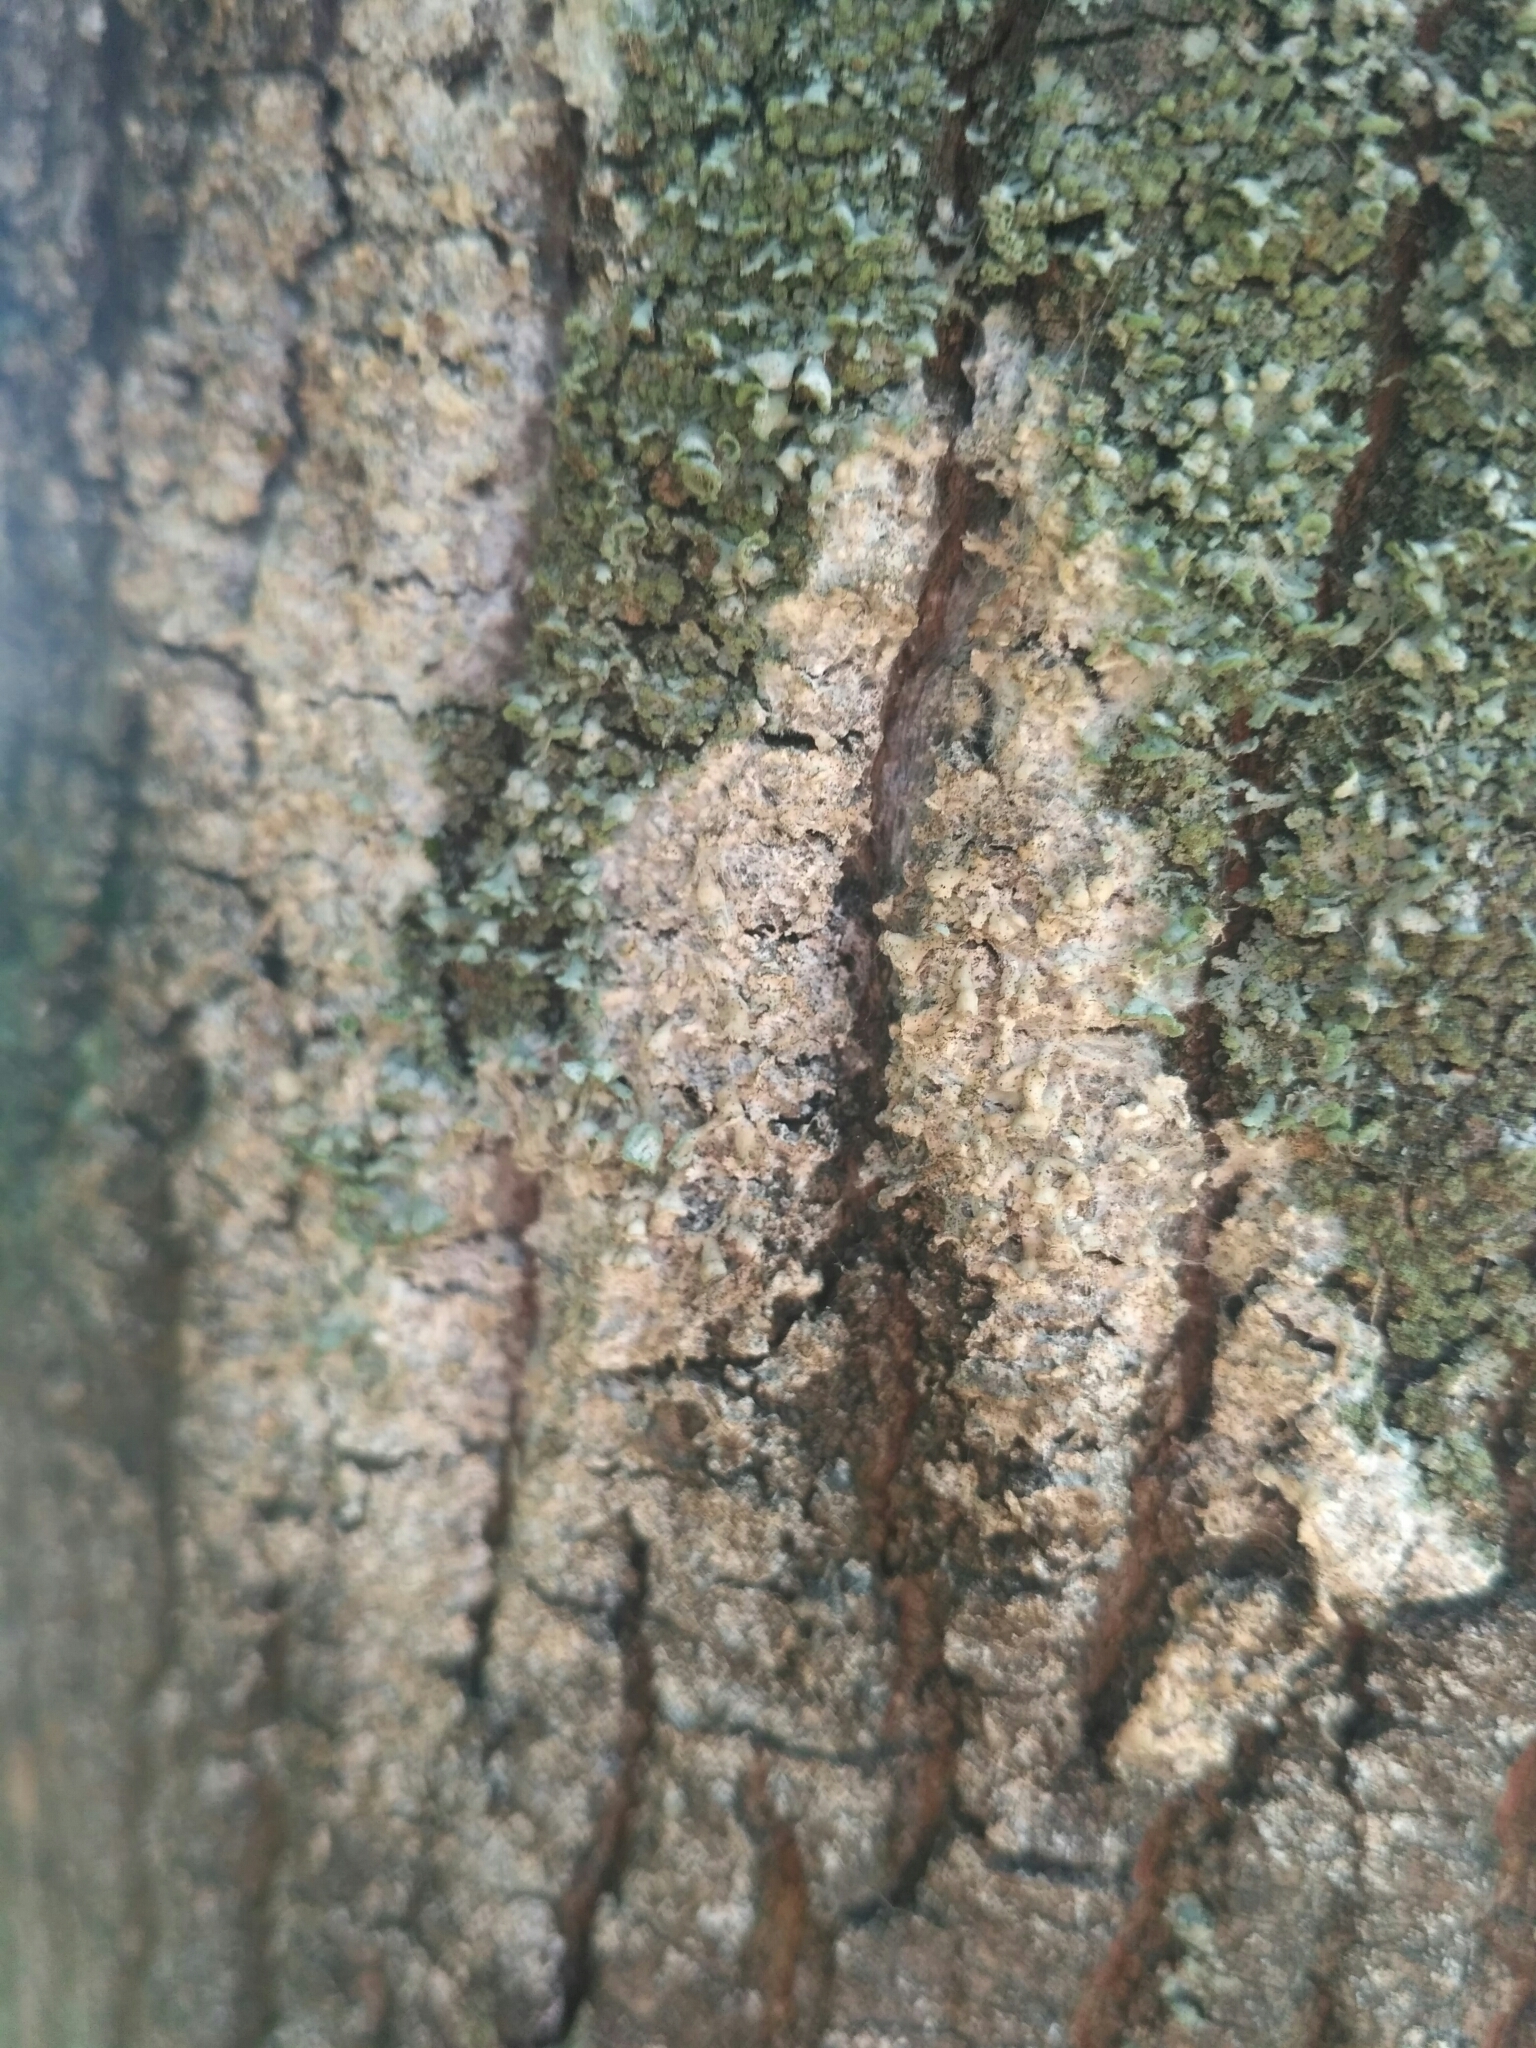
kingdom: Fungi
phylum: Basidiomycota
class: Agaricomycetes
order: Atheliales
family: Atheliaceae
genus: Athelia
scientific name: Athelia arachnoidea
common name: Candelabra duster
